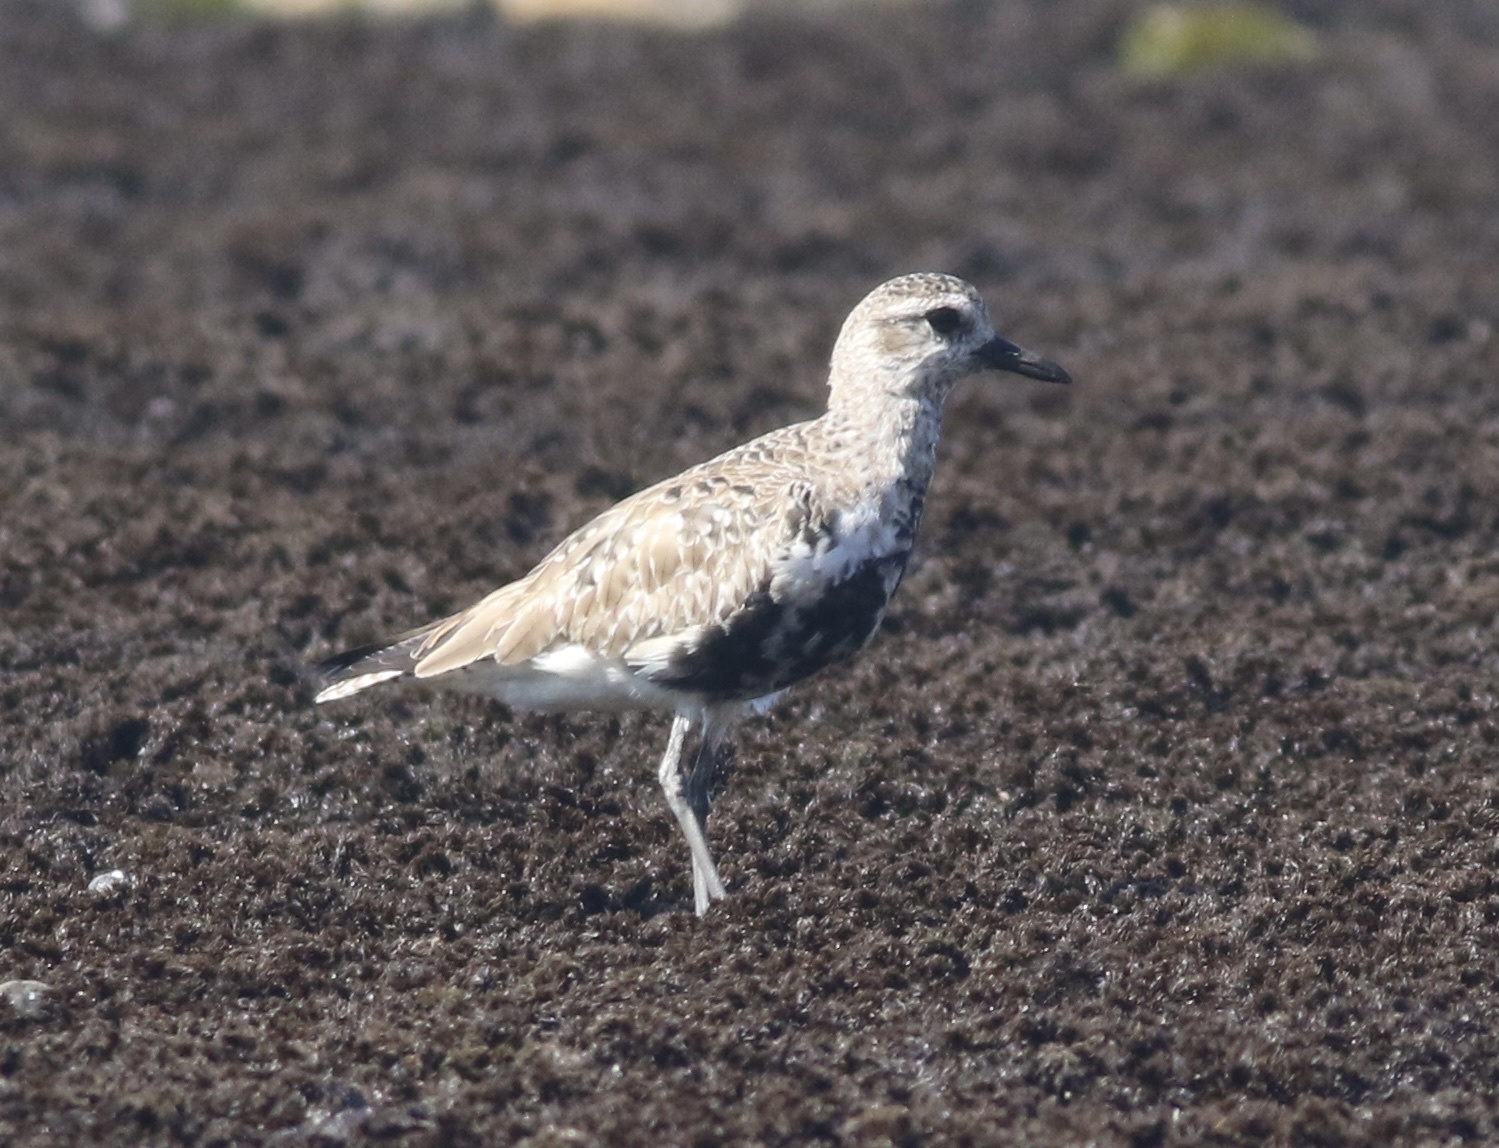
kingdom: Animalia
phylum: Chordata
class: Aves
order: Charadriiformes
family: Charadriidae
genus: Pluvialis
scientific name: Pluvialis squatarola
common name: Grey plover
